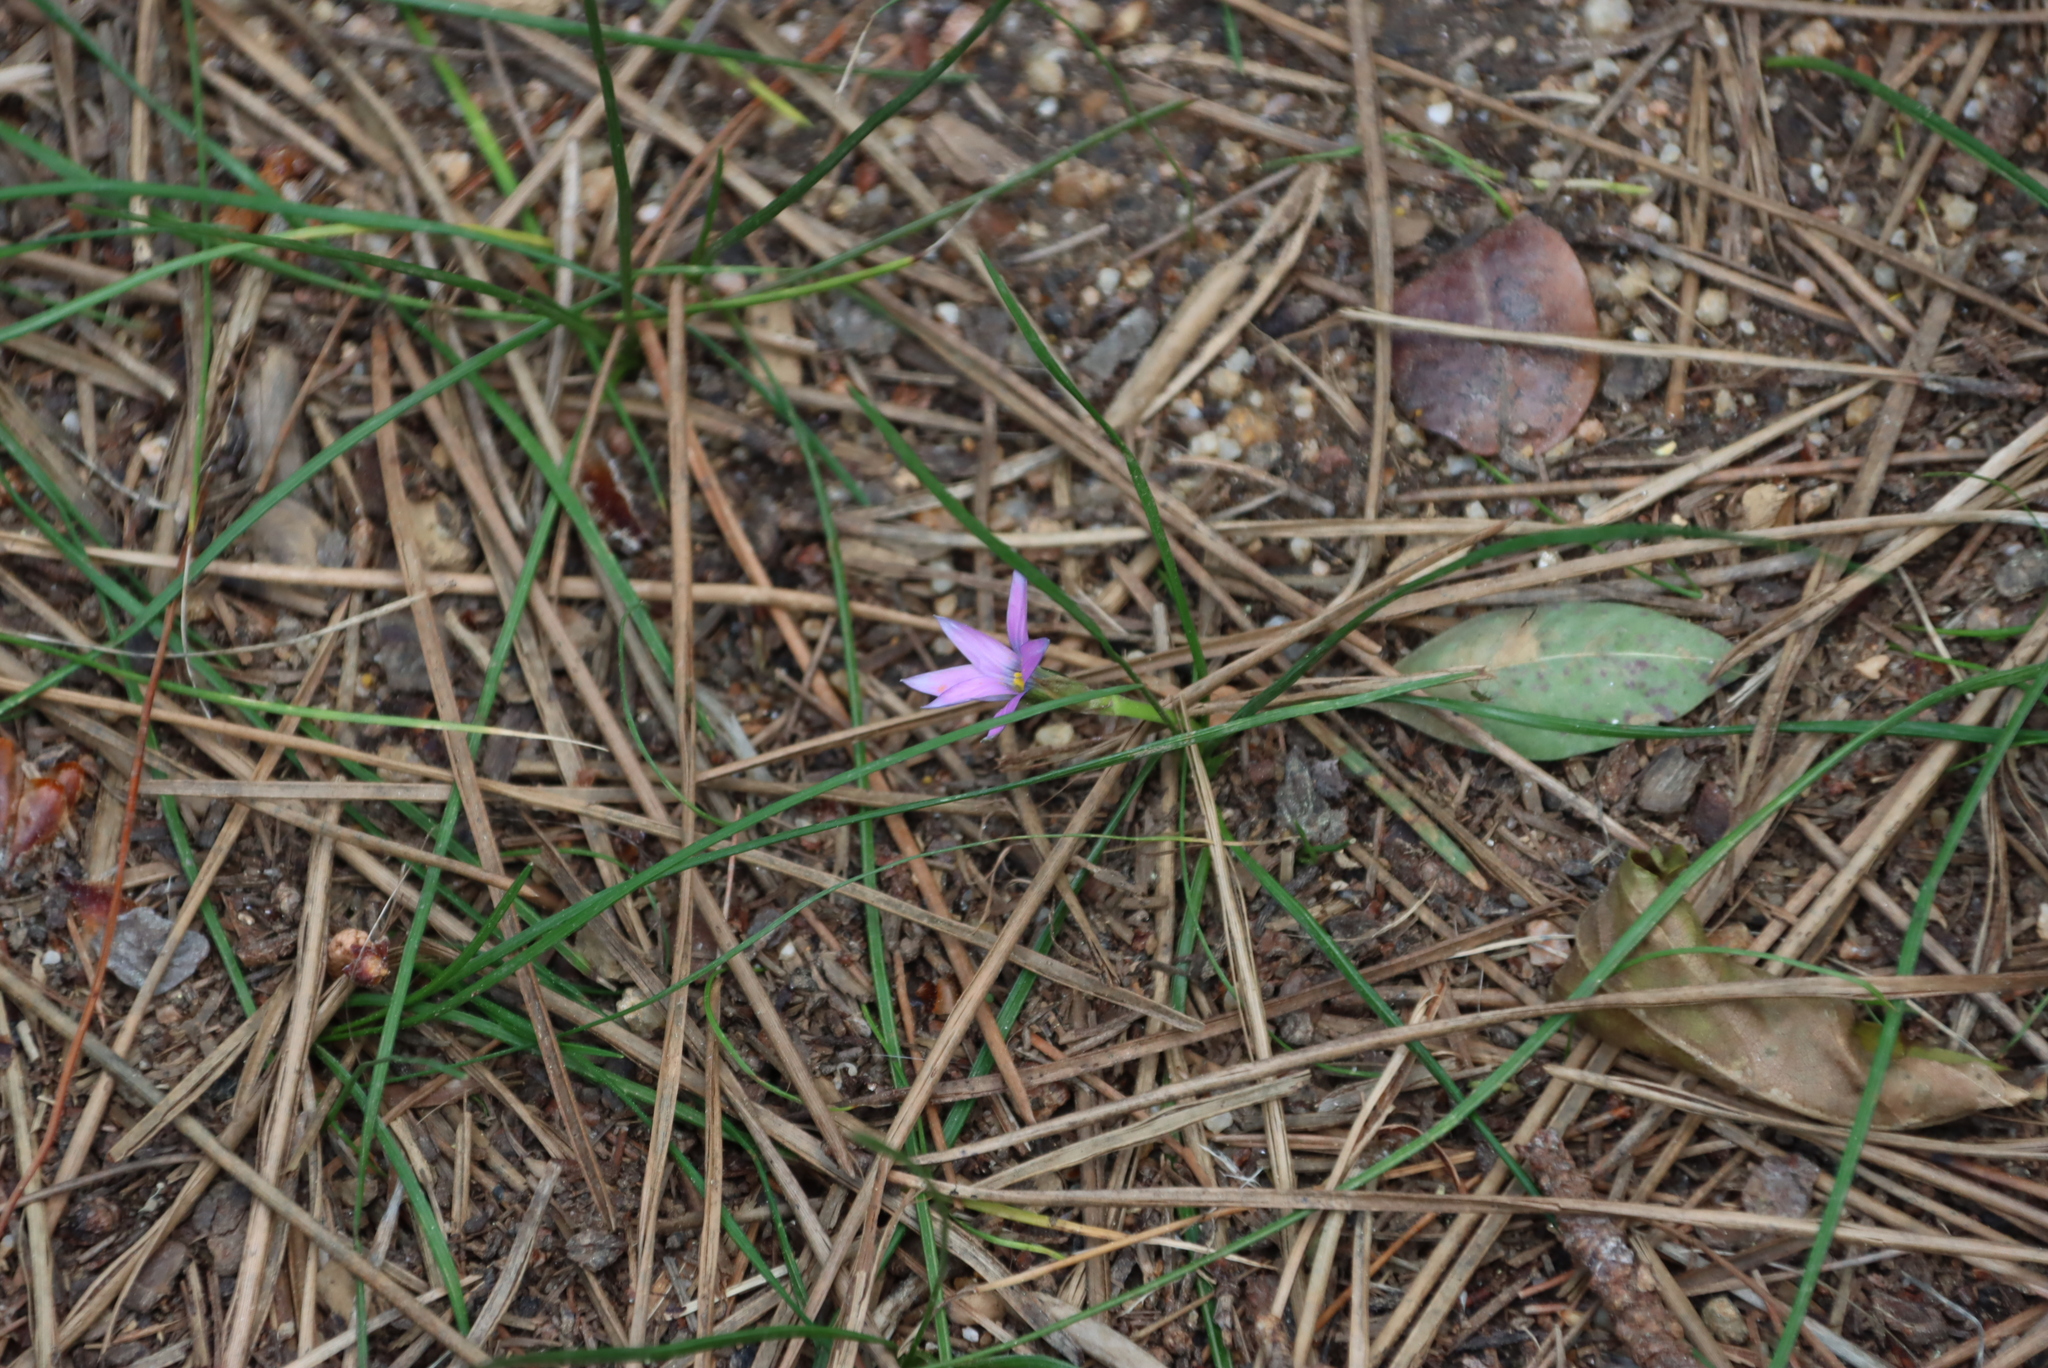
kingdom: Plantae
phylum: Tracheophyta
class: Liliopsida
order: Asparagales
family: Iridaceae
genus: Romulea
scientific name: Romulea rosea
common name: Oniongrass
